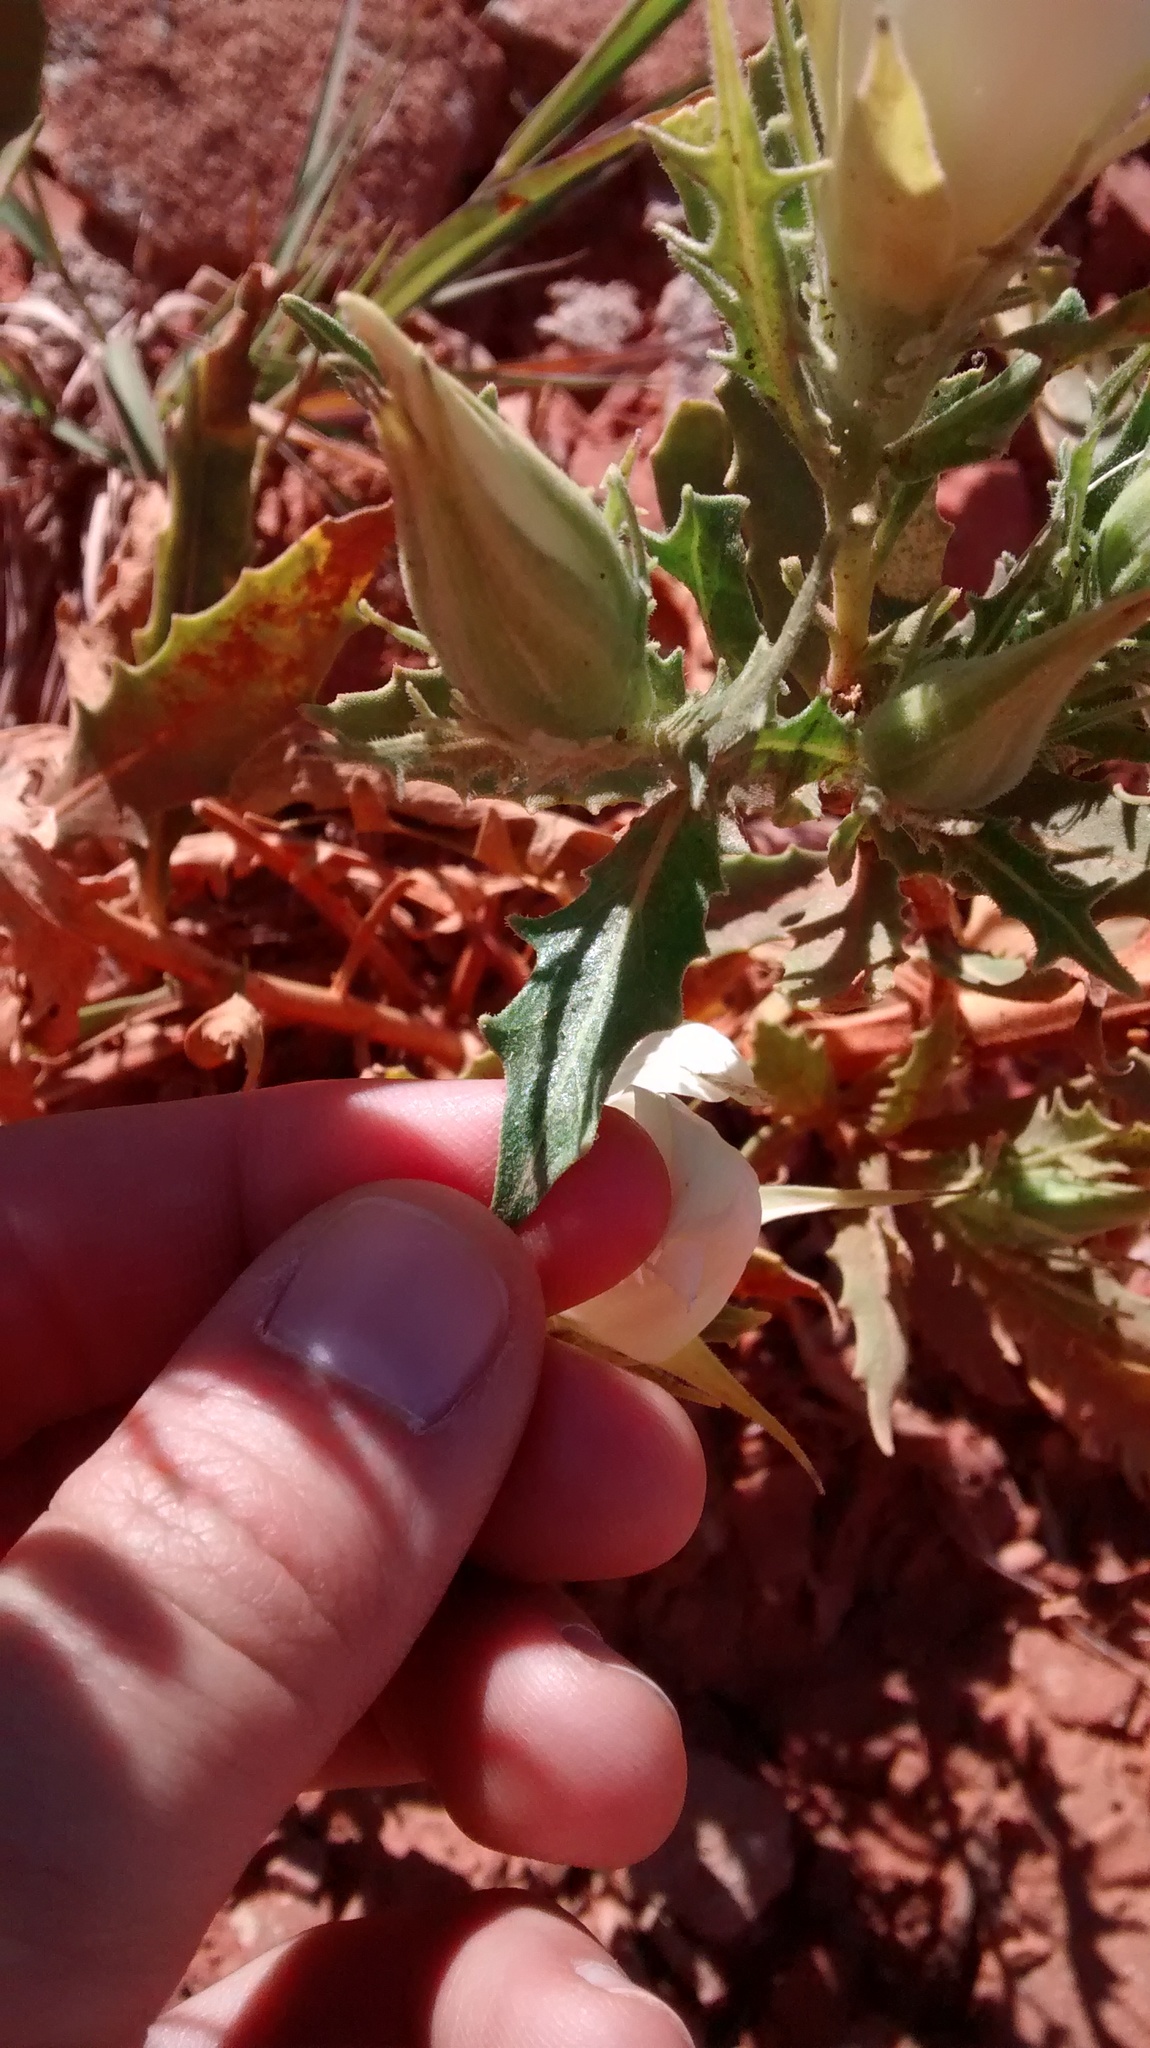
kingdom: Plantae
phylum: Tracheophyta
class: Magnoliopsida
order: Cornales
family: Loasaceae
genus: Mentzelia
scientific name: Mentzelia nuda
